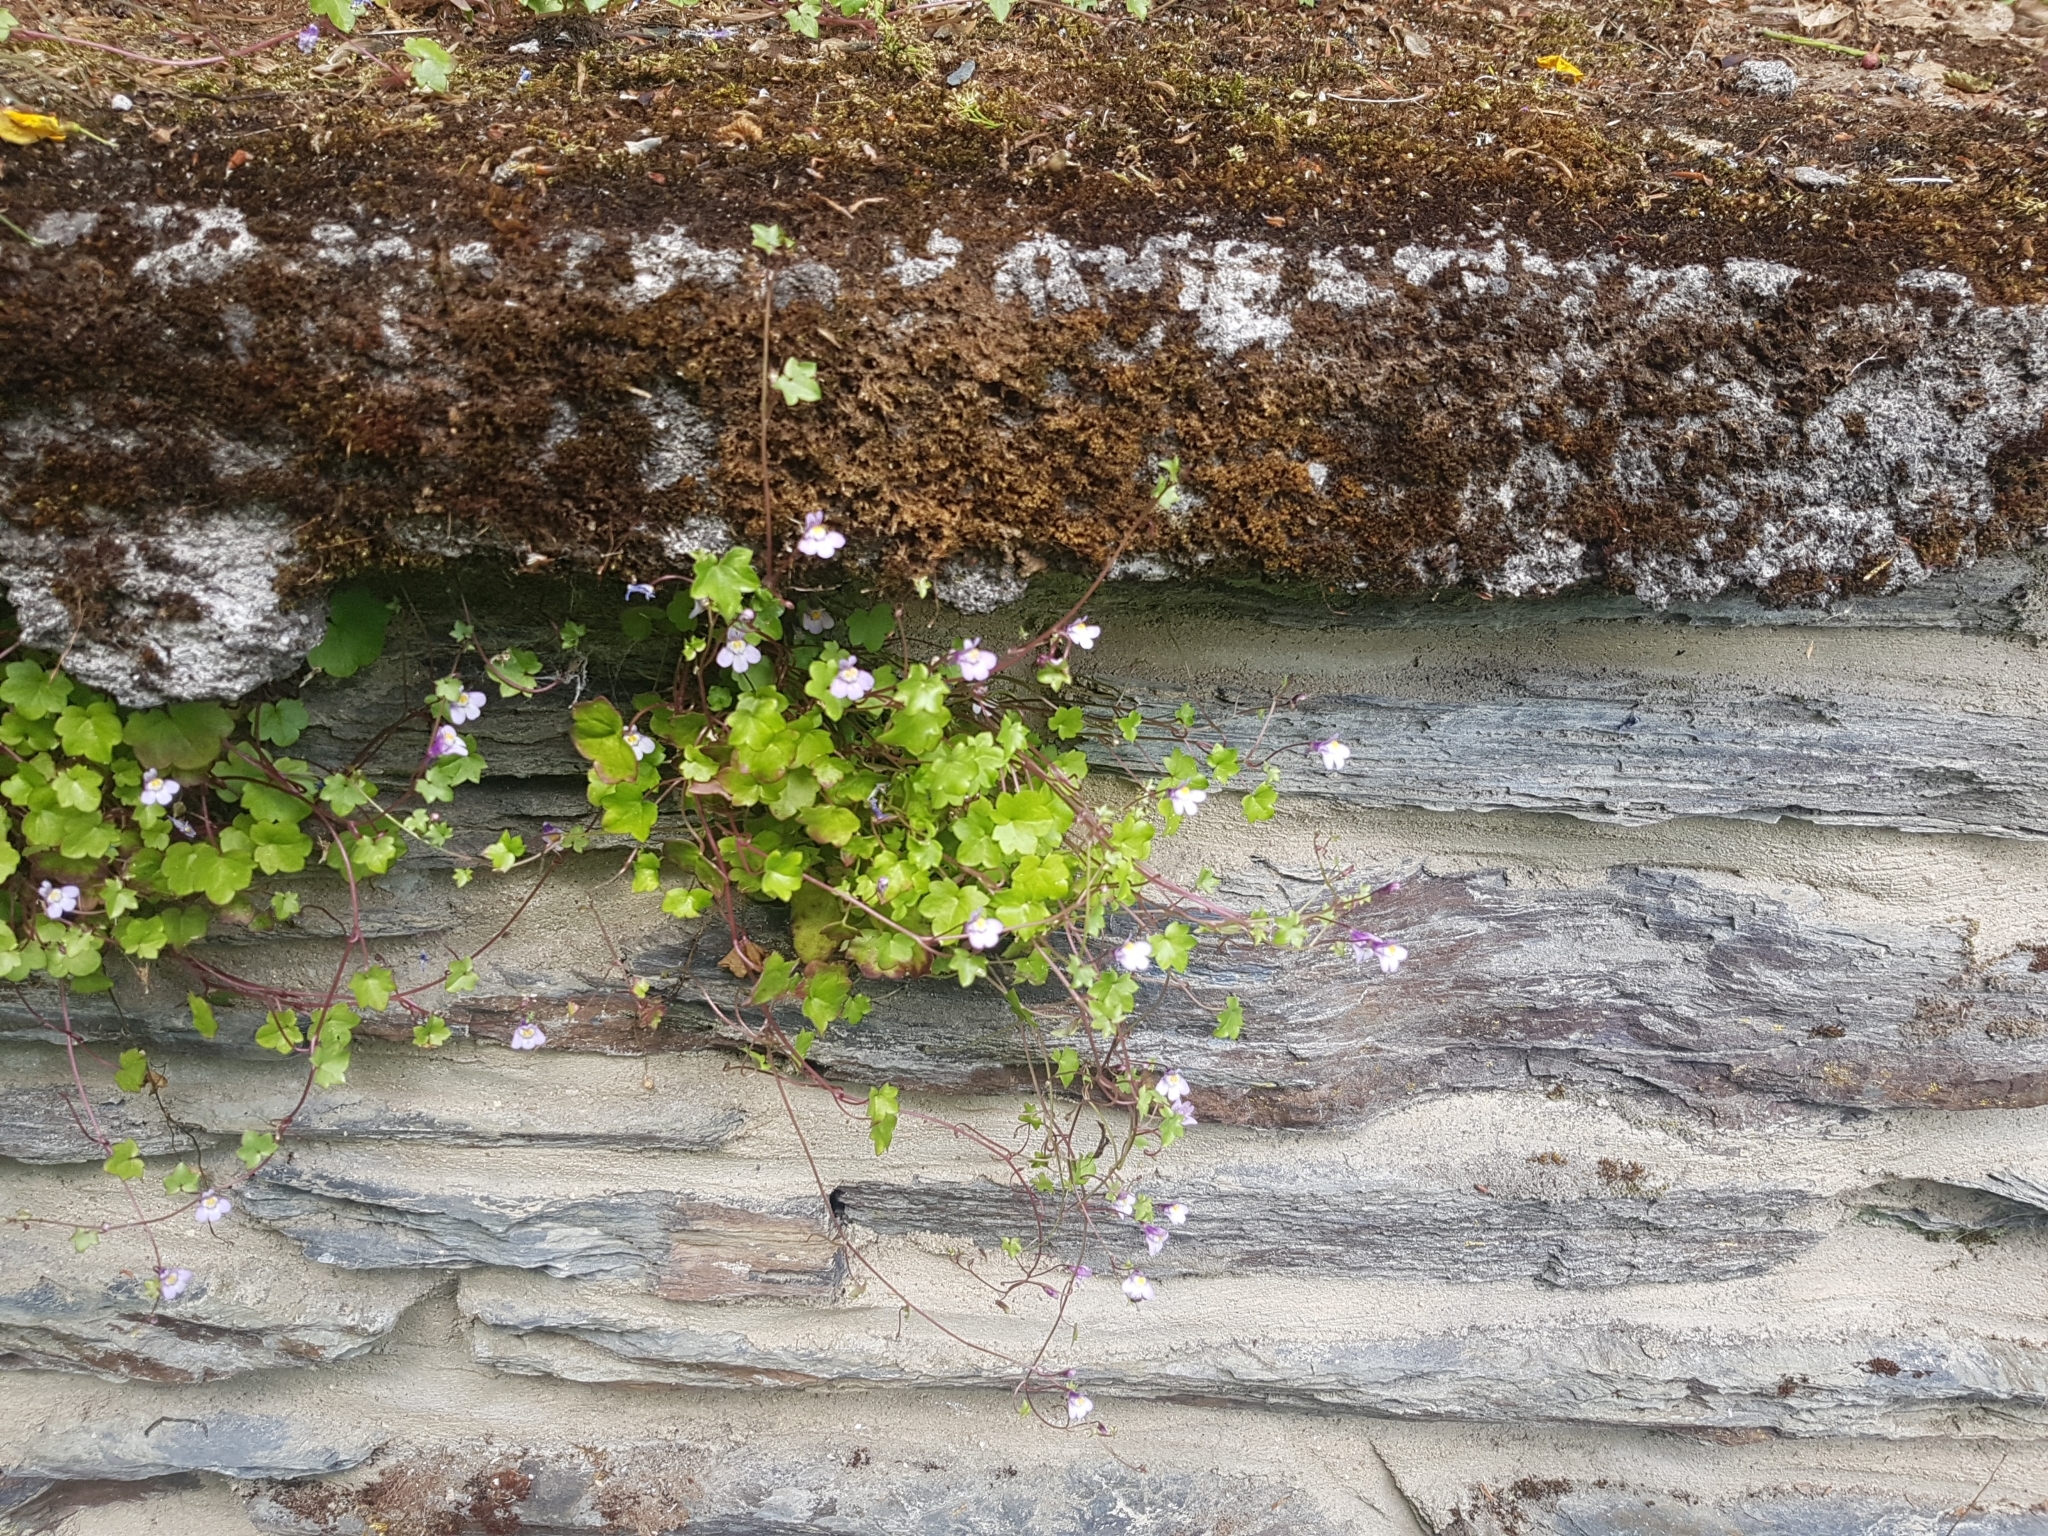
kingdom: Plantae
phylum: Tracheophyta
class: Magnoliopsida
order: Lamiales
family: Plantaginaceae
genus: Cymbalaria
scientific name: Cymbalaria muralis
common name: Ivy-leaved toadflax
